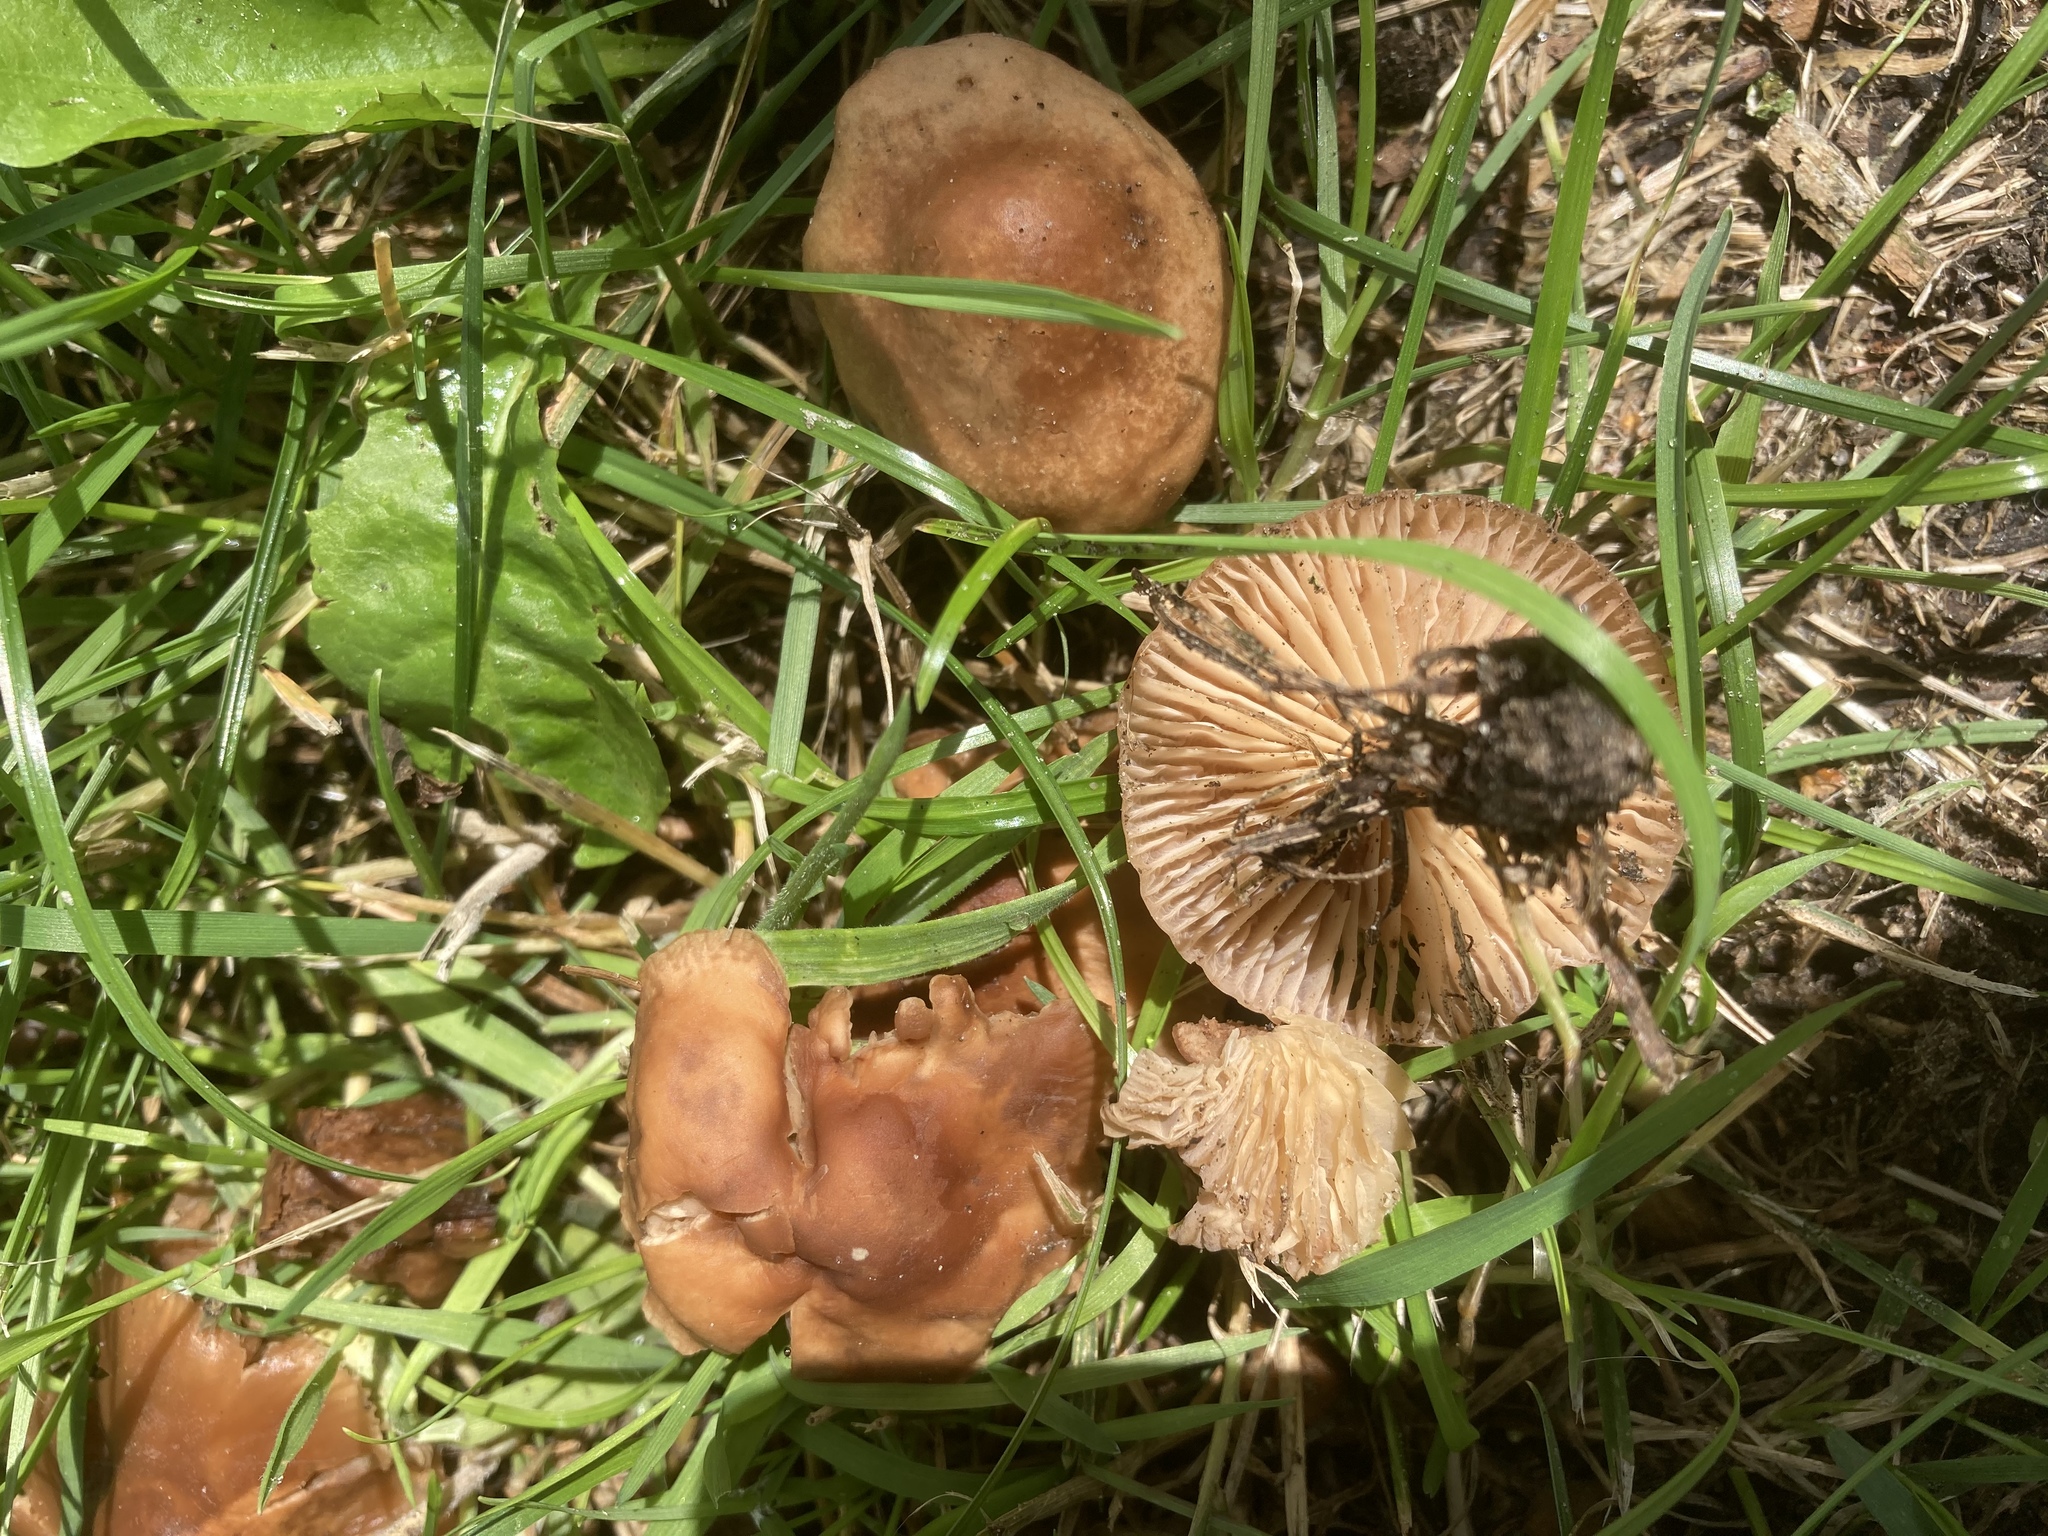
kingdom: Fungi
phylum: Basidiomycota
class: Agaricomycetes
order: Agaricales
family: Marasmiaceae
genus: Marasmius
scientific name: Marasmius oreades
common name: Fairy ring champignon
